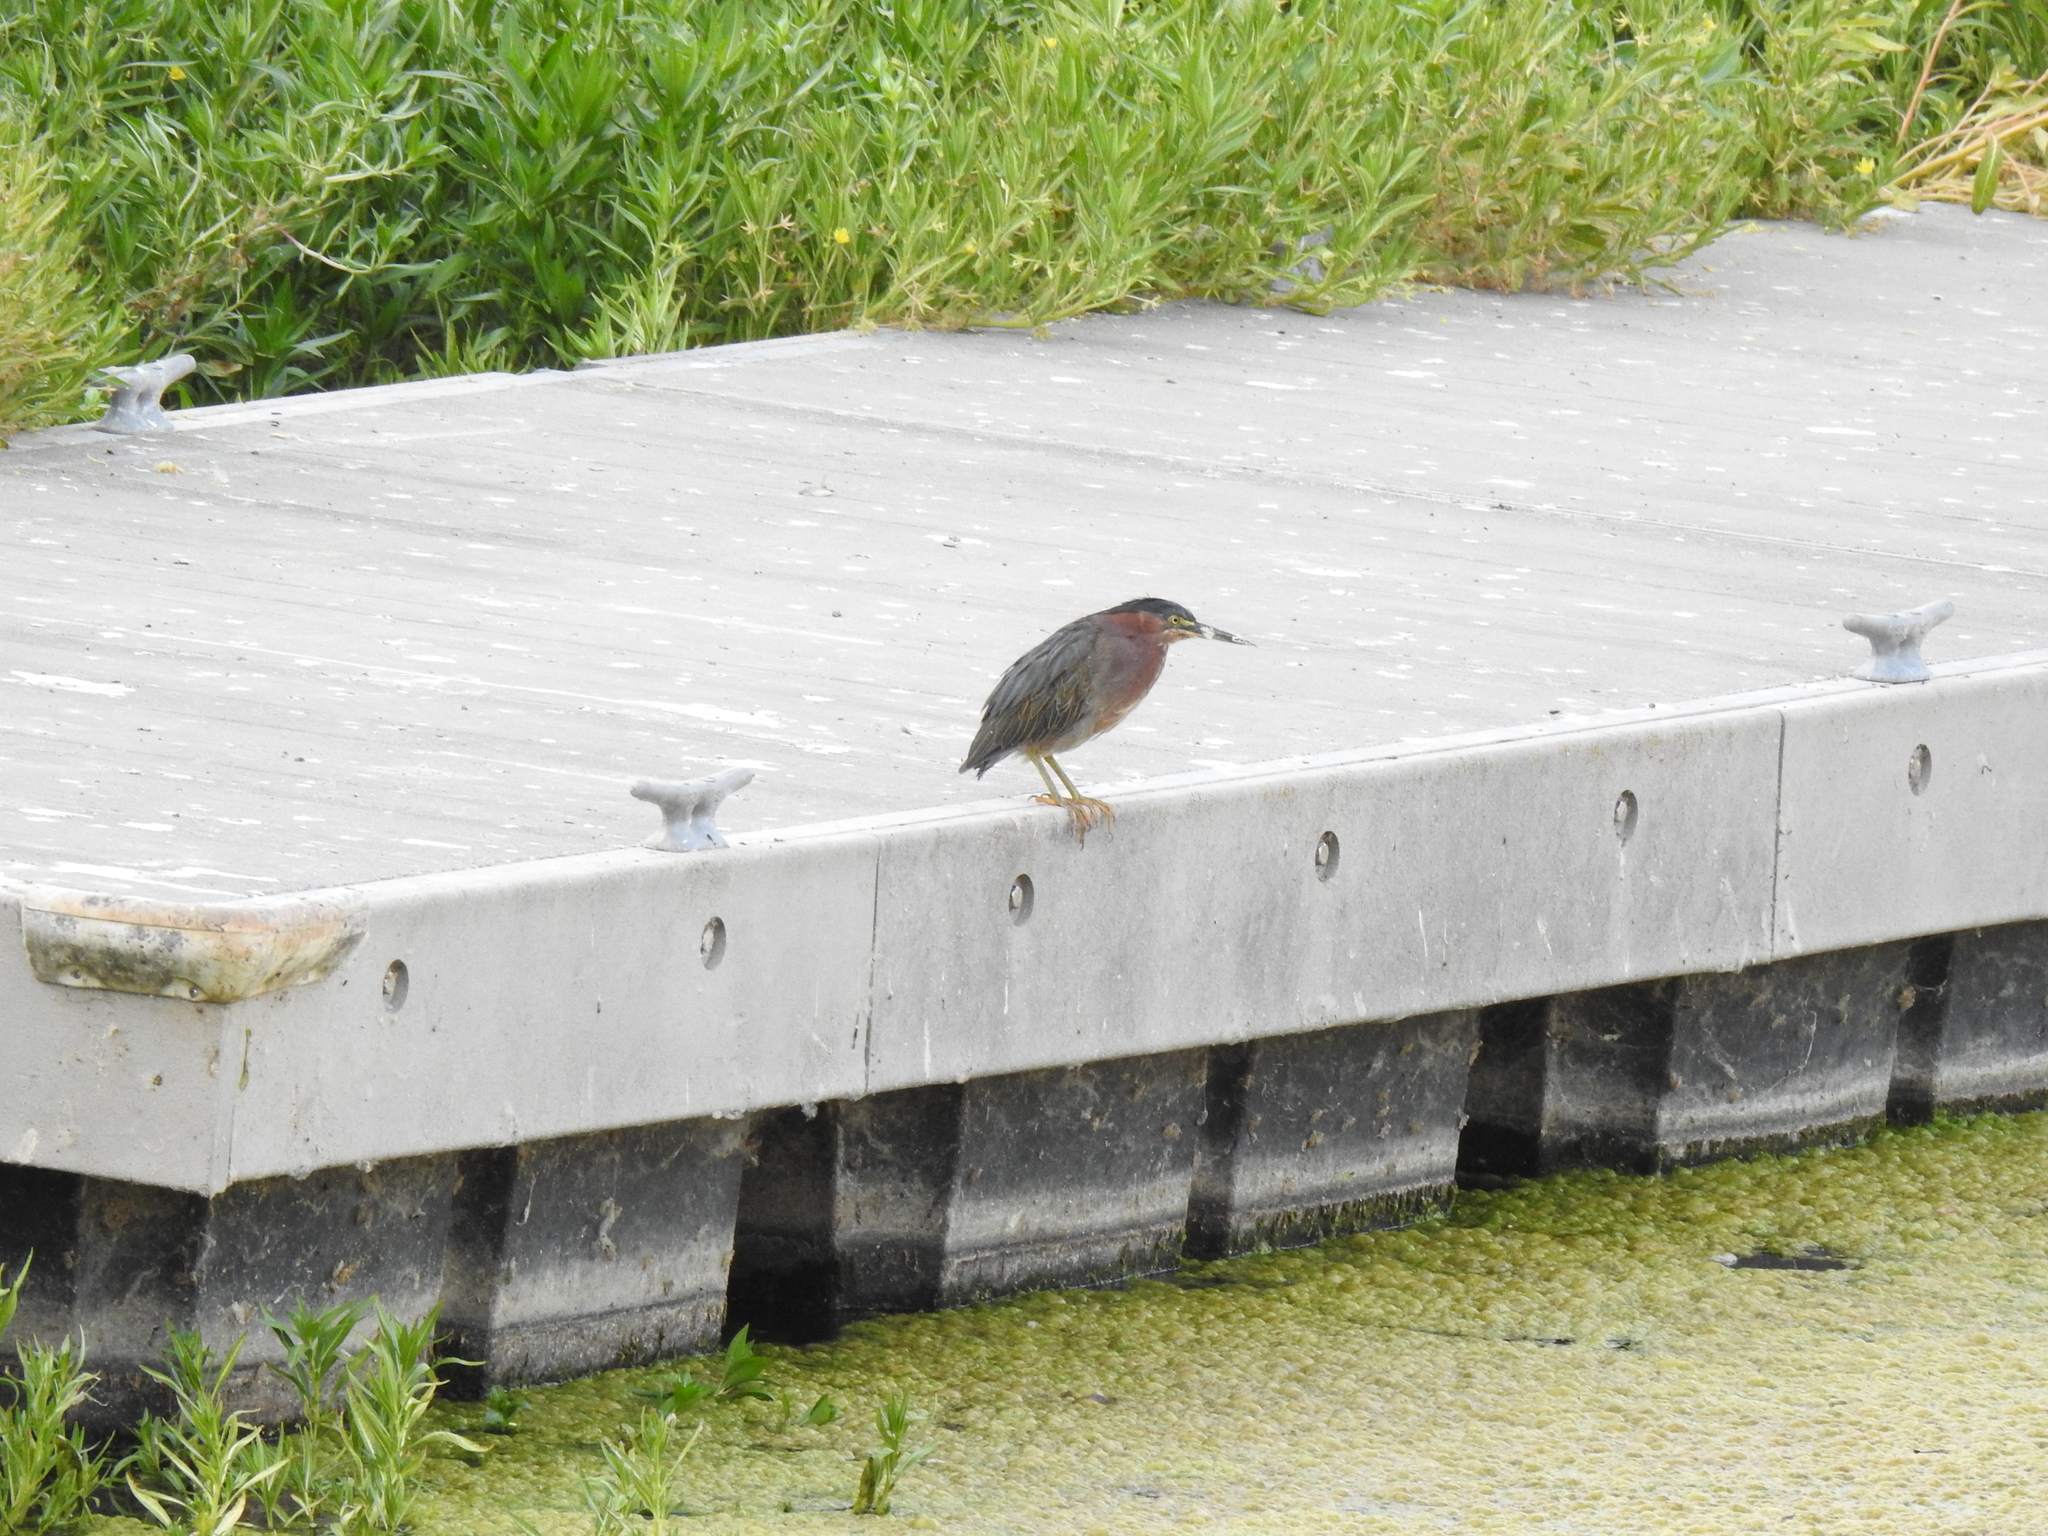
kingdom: Animalia
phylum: Chordata
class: Aves
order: Pelecaniformes
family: Ardeidae
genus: Butorides
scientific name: Butorides virescens
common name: Green heron
